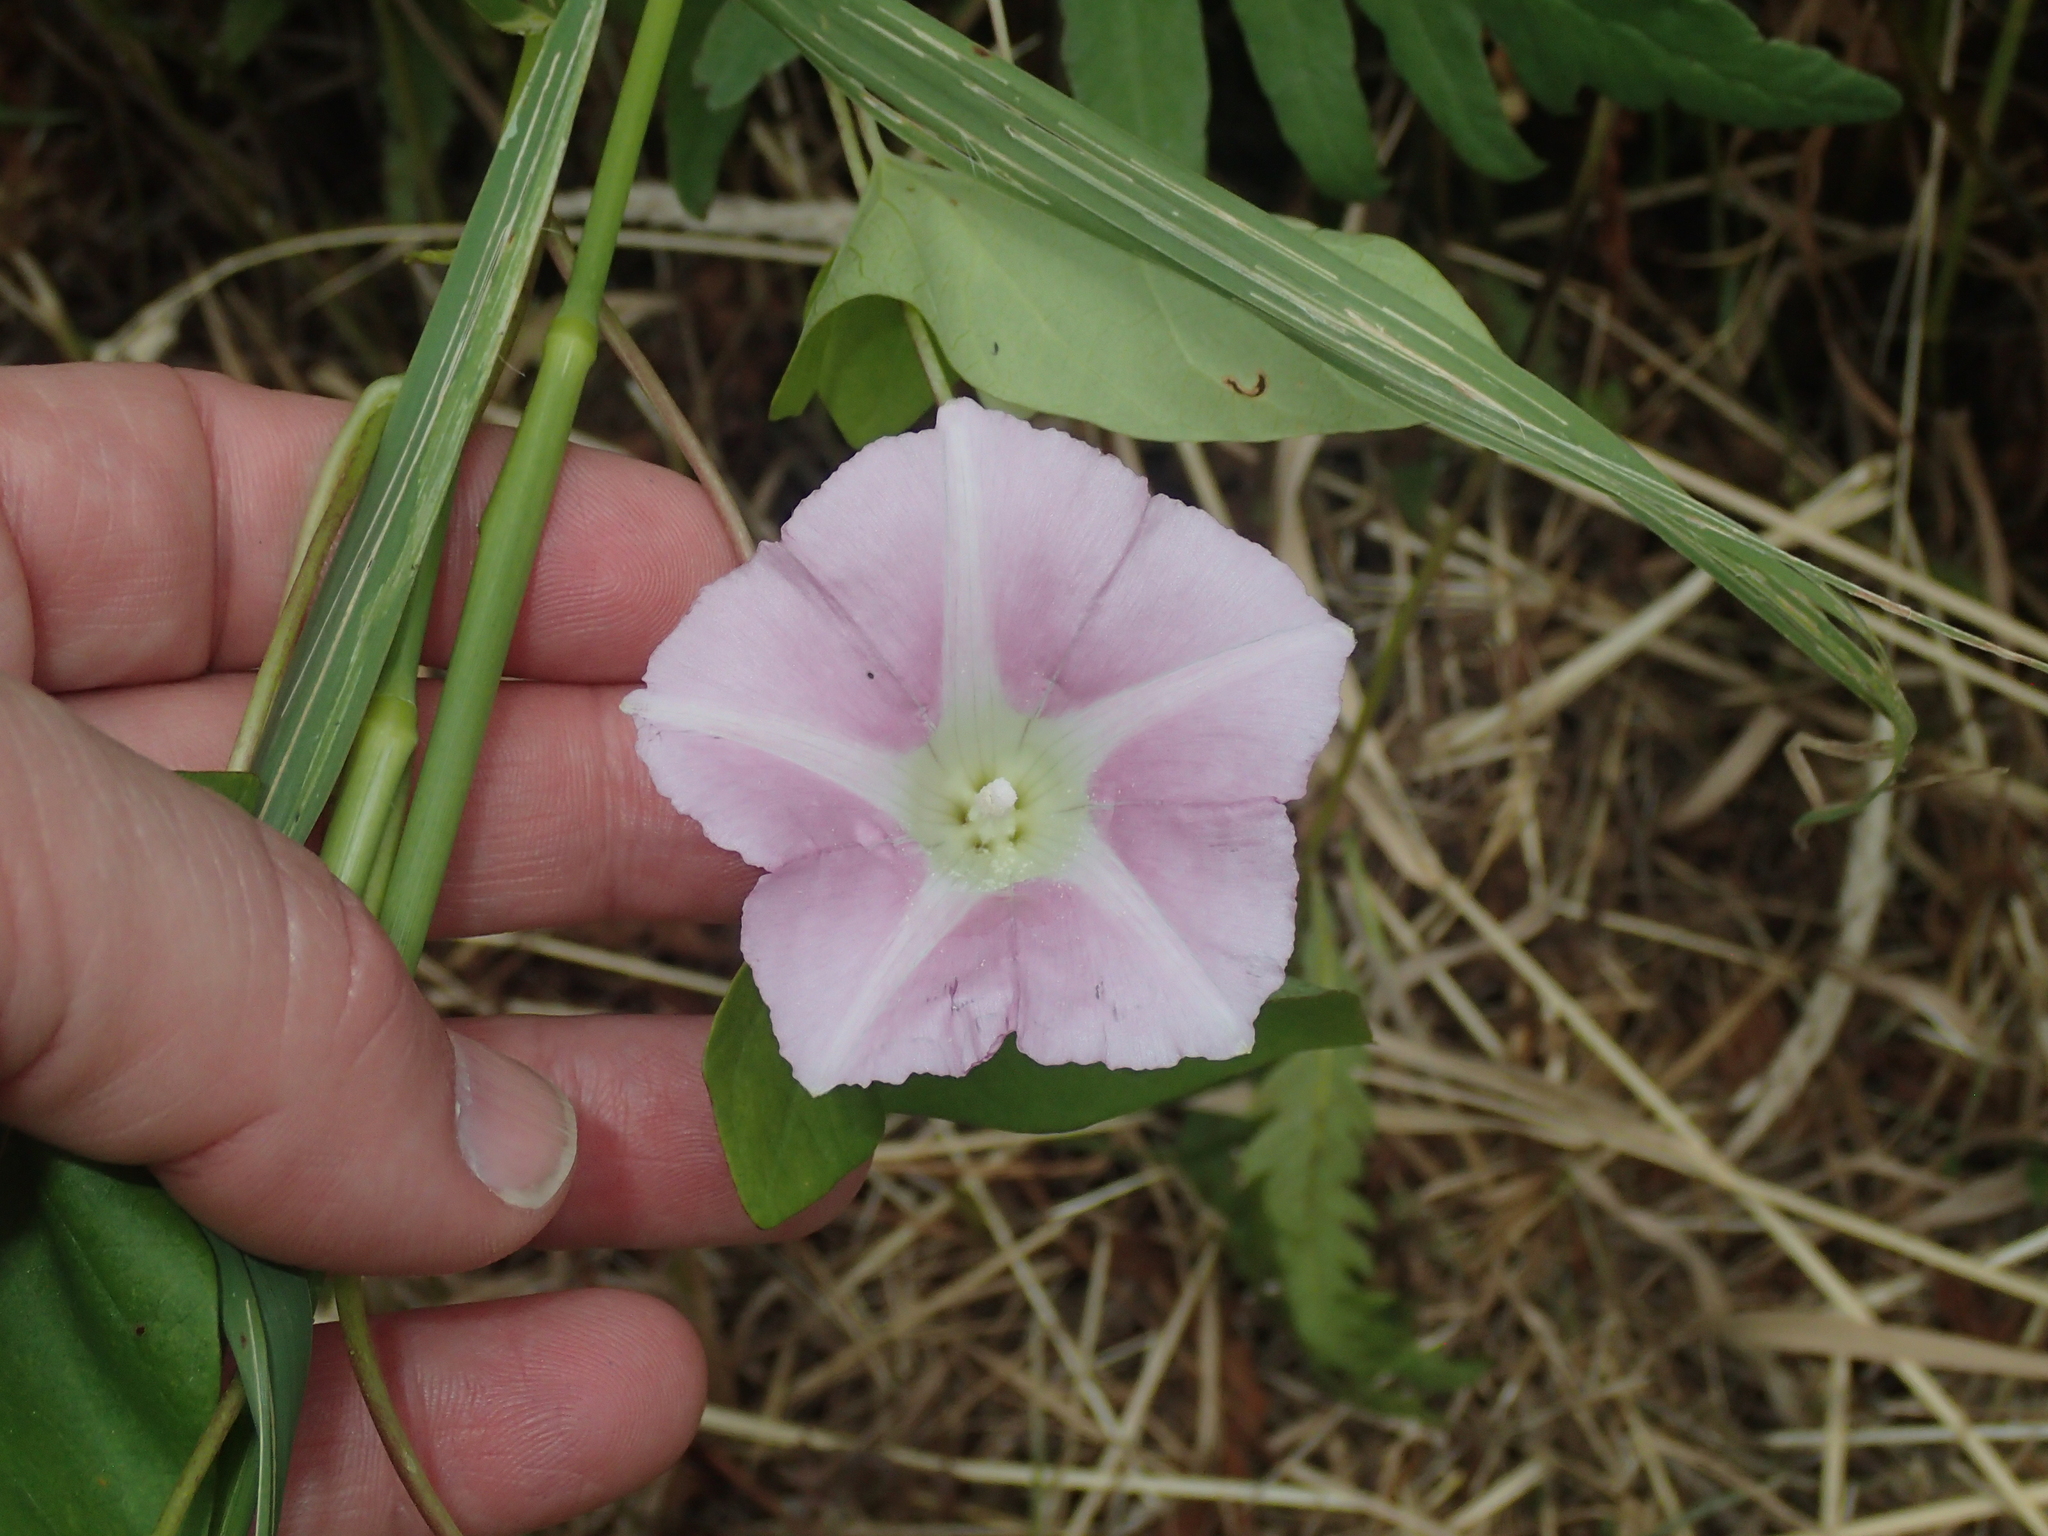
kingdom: Plantae
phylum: Tracheophyta
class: Magnoliopsida
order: Solanales
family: Convolvulaceae
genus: Calystegia
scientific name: Calystegia sepium
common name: Hedge bindweed
